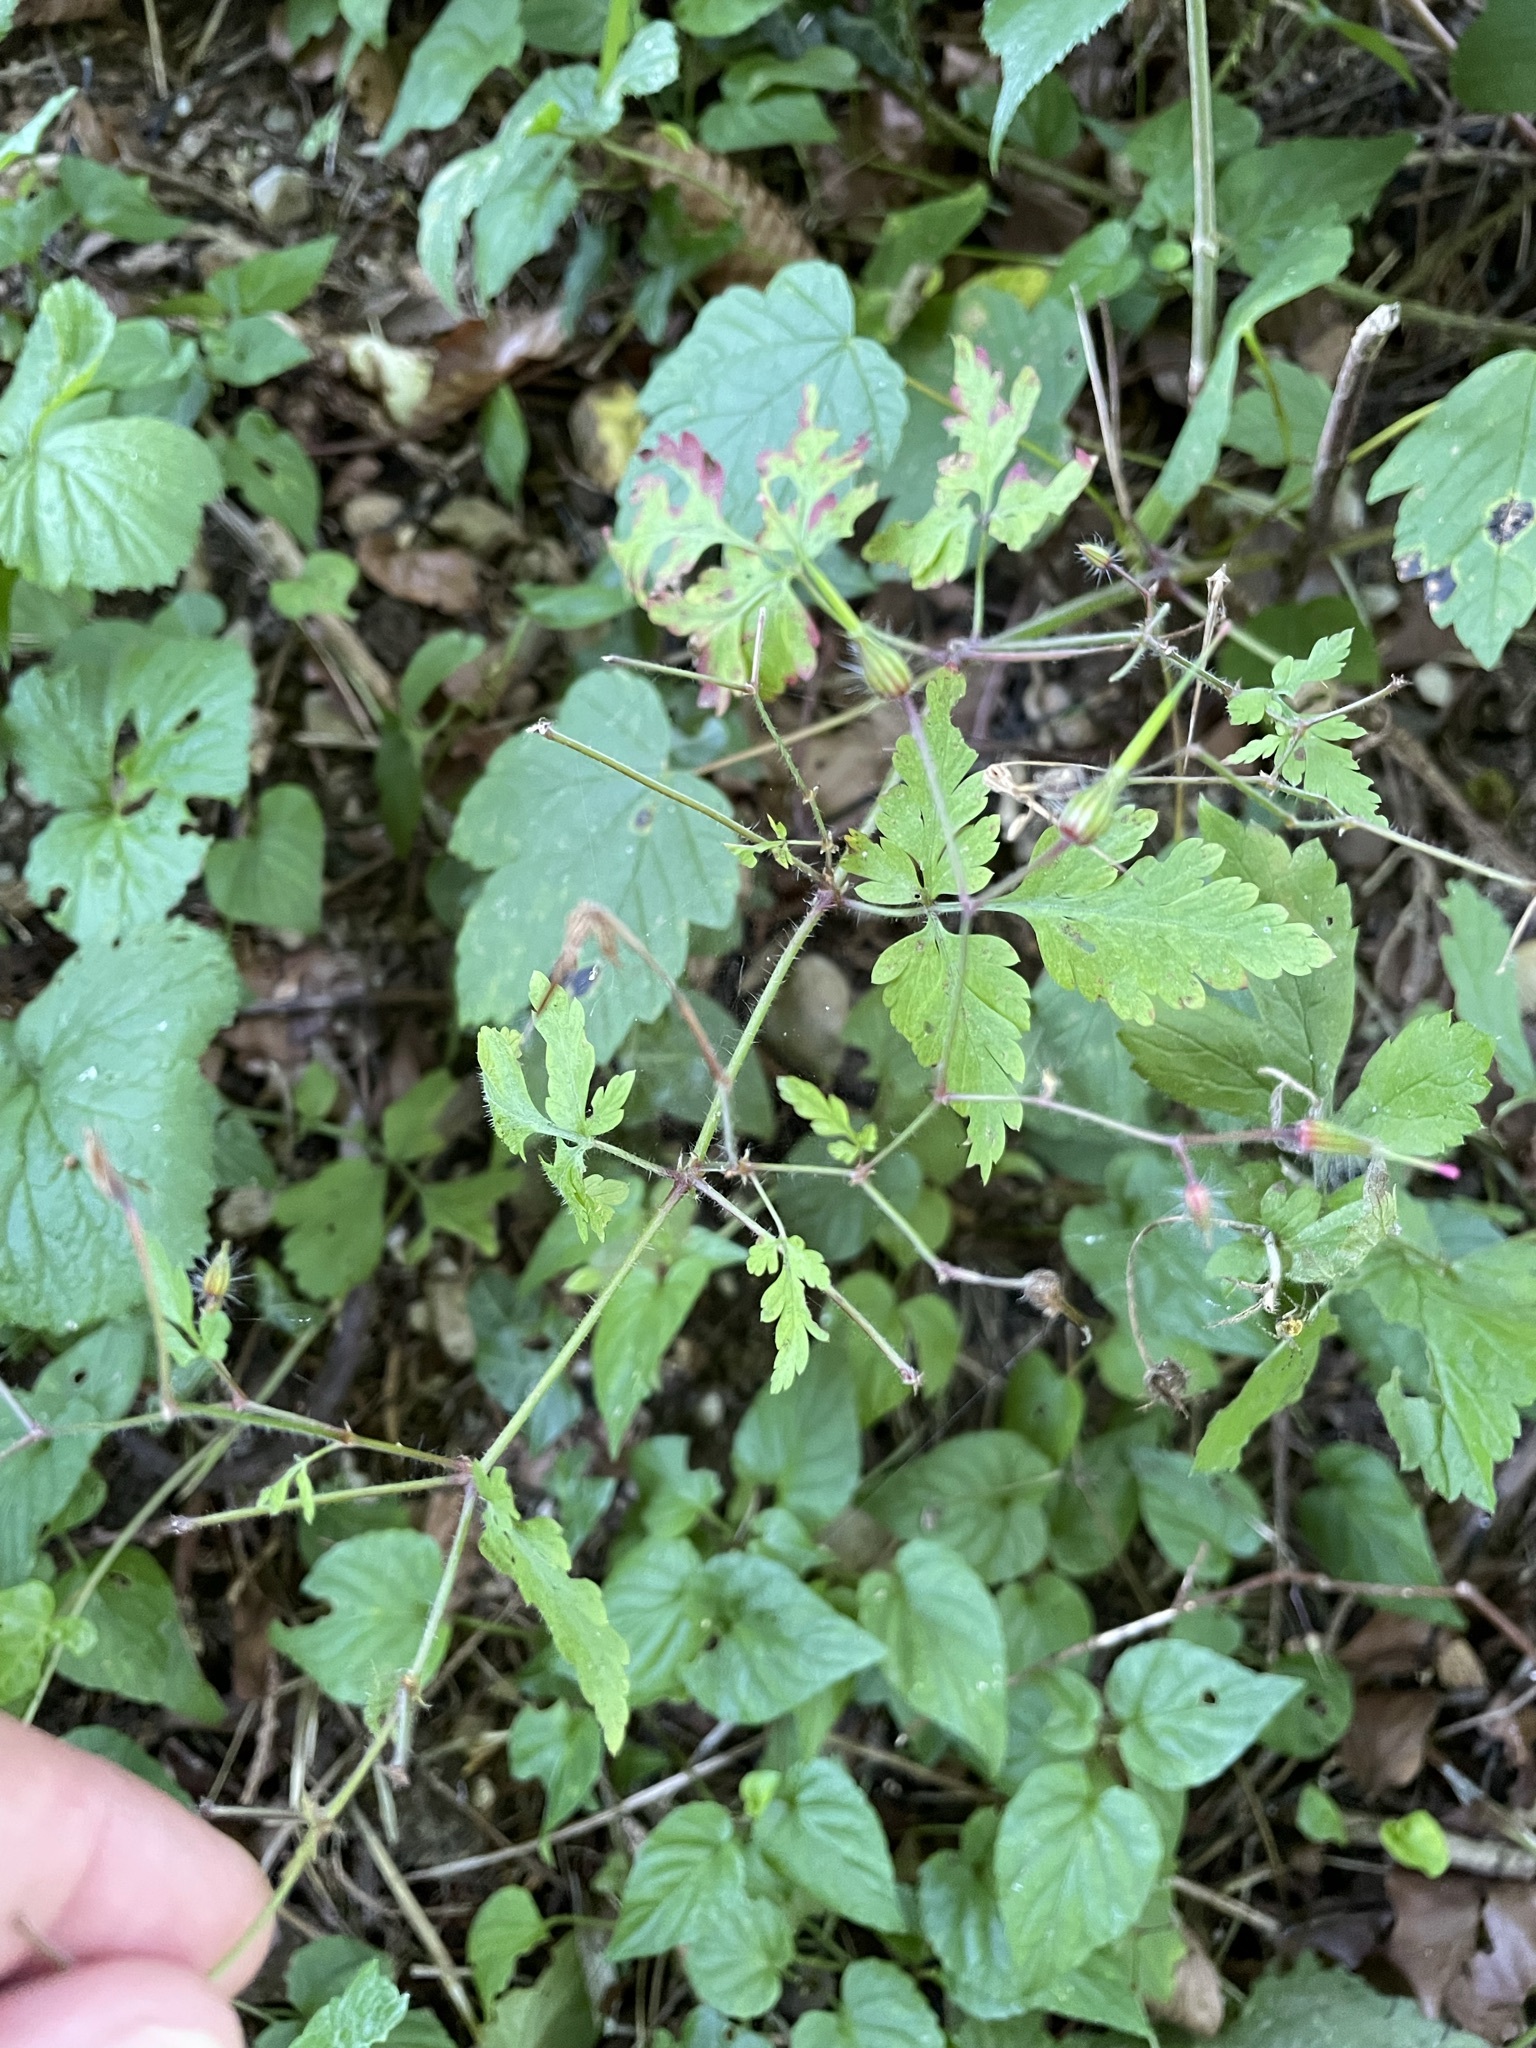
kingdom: Plantae
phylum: Tracheophyta
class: Magnoliopsida
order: Geraniales
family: Geraniaceae
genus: Geranium
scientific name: Geranium robertianum
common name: Herb-robert
